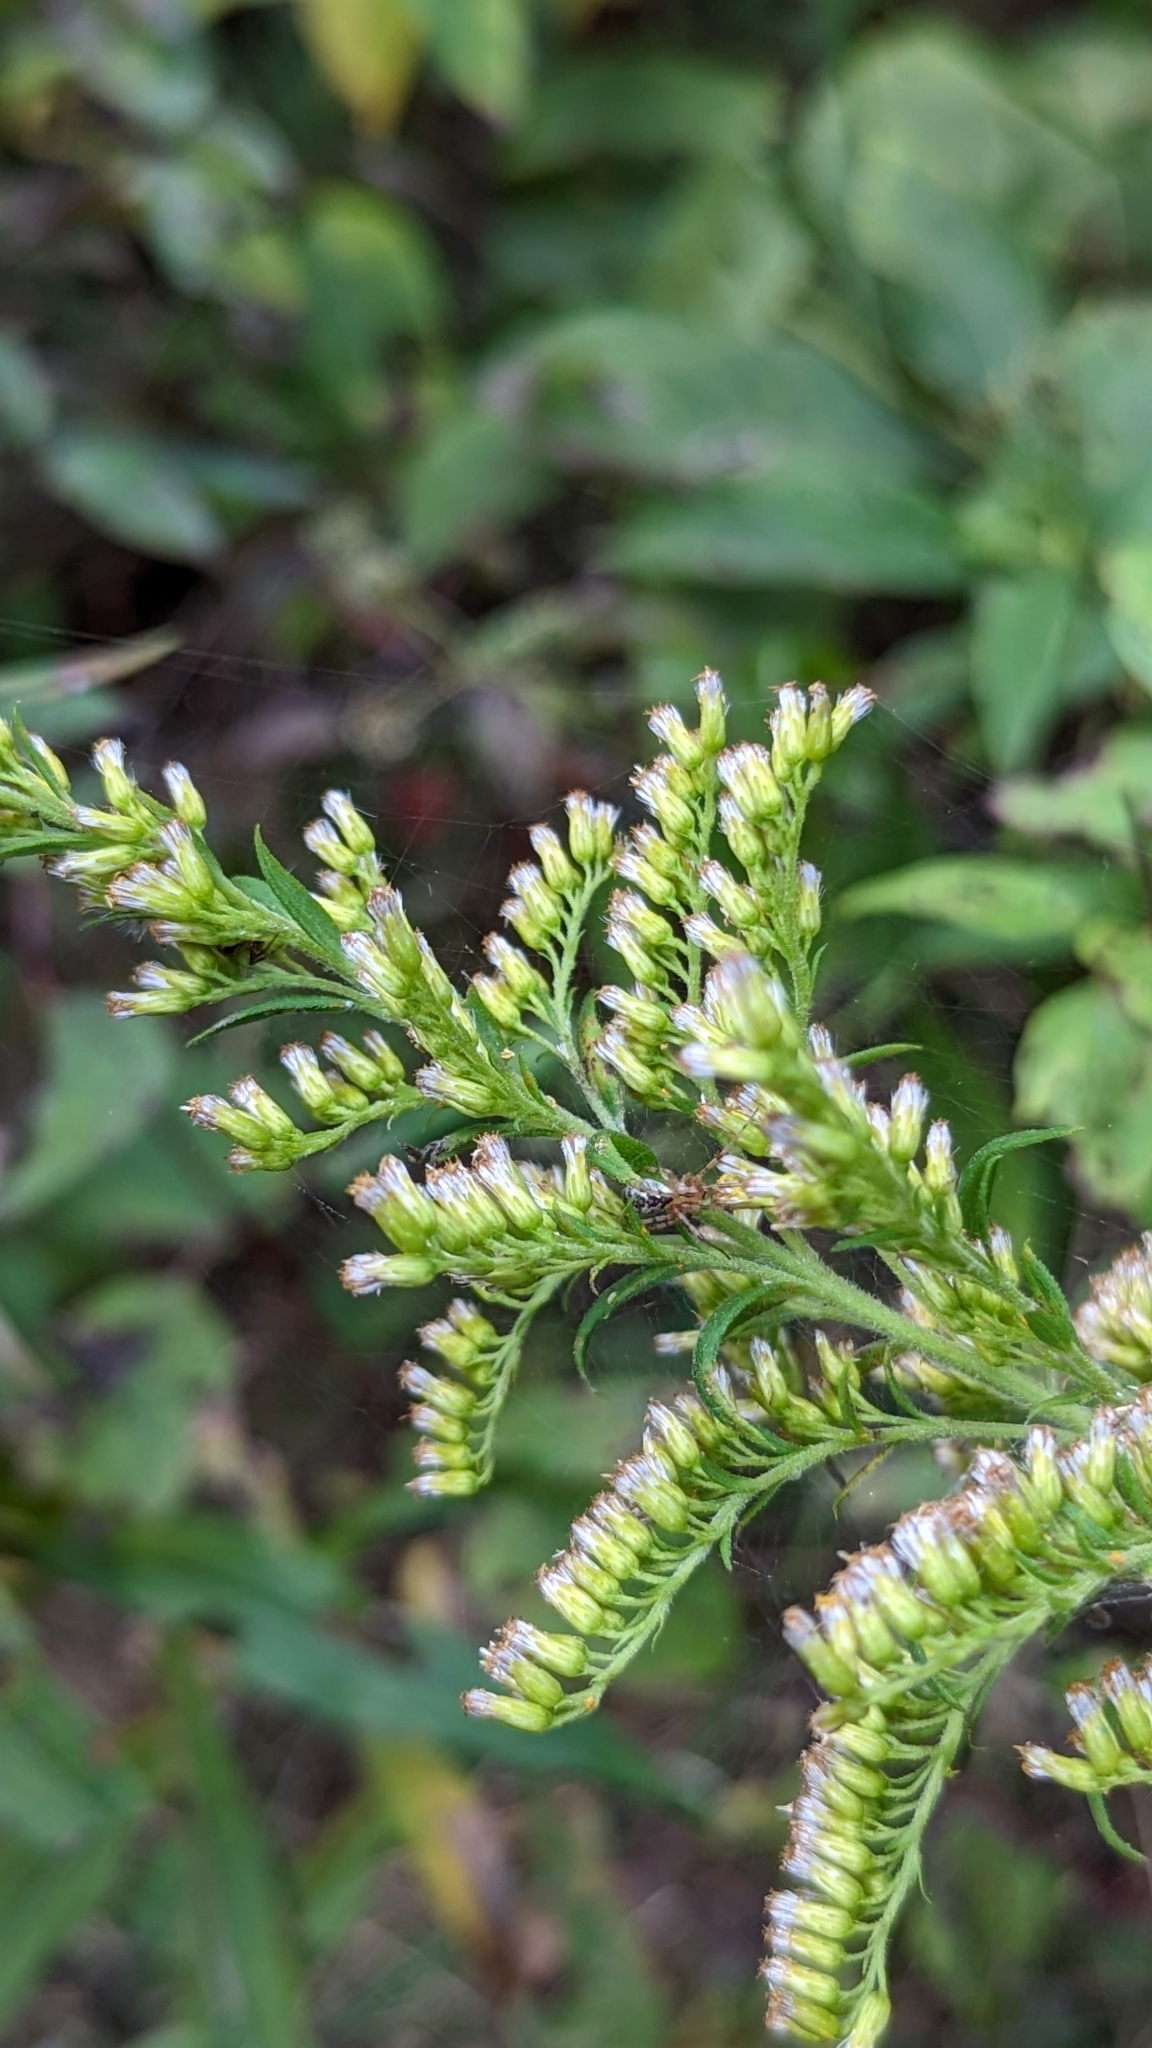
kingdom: Animalia
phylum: Arthropoda
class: Arachnida
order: Araneae
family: Linyphiidae
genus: Pityohyphantes
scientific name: Pityohyphantes costatus
